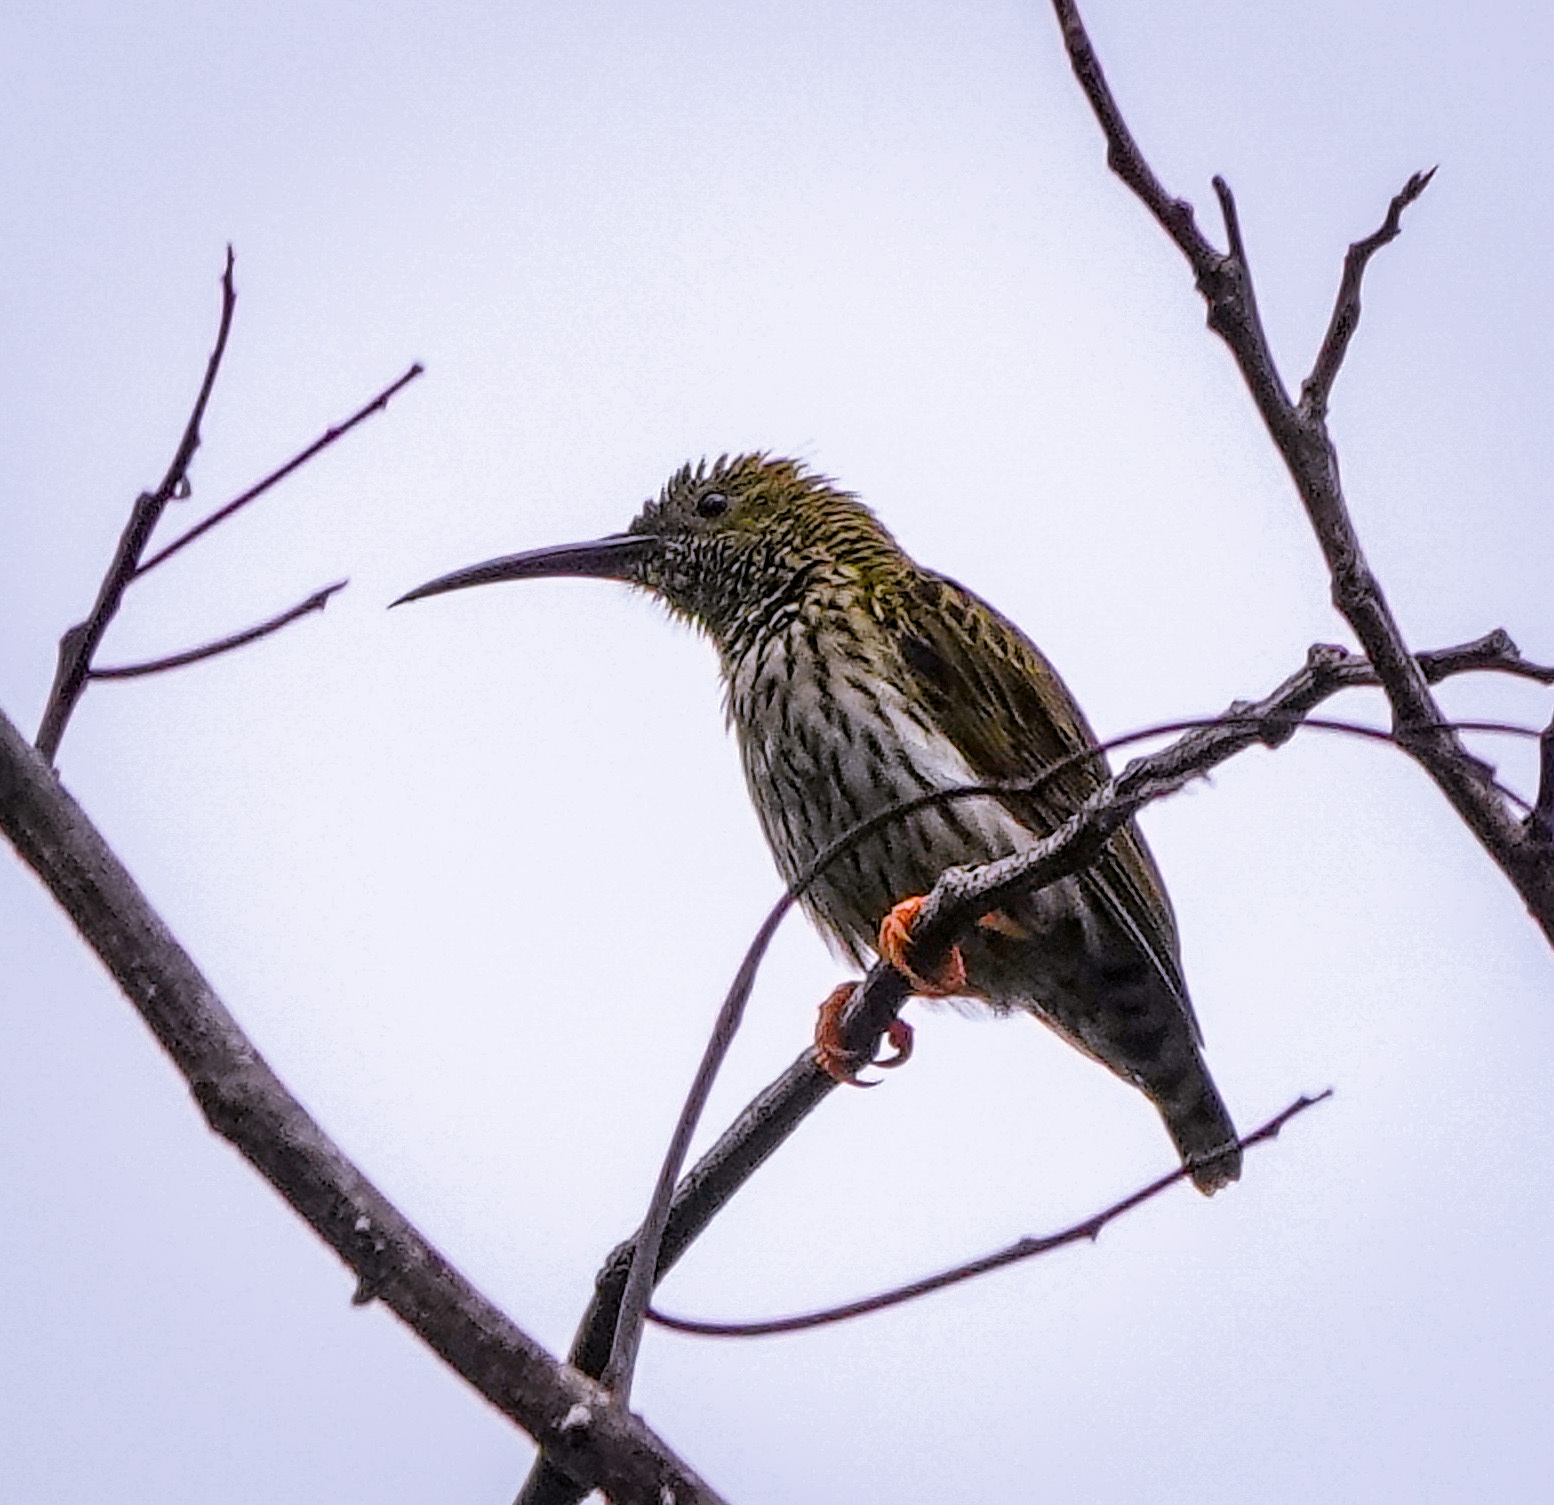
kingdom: Animalia
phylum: Chordata
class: Aves
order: Passeriformes
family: Nectariniidae
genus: Arachnothera
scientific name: Arachnothera magna
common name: Streaked spiderhunter
